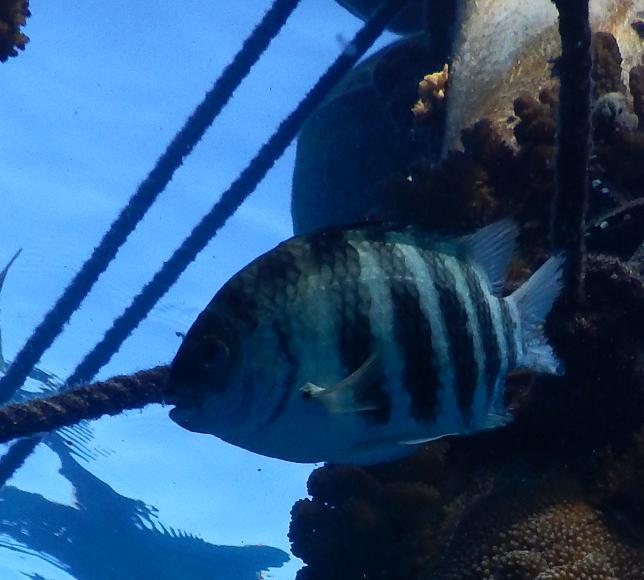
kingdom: Animalia
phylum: Chordata
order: Perciformes
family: Pomacentridae
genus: Abudefduf
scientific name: Abudefduf septemfasciatus
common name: Banded sergeant
